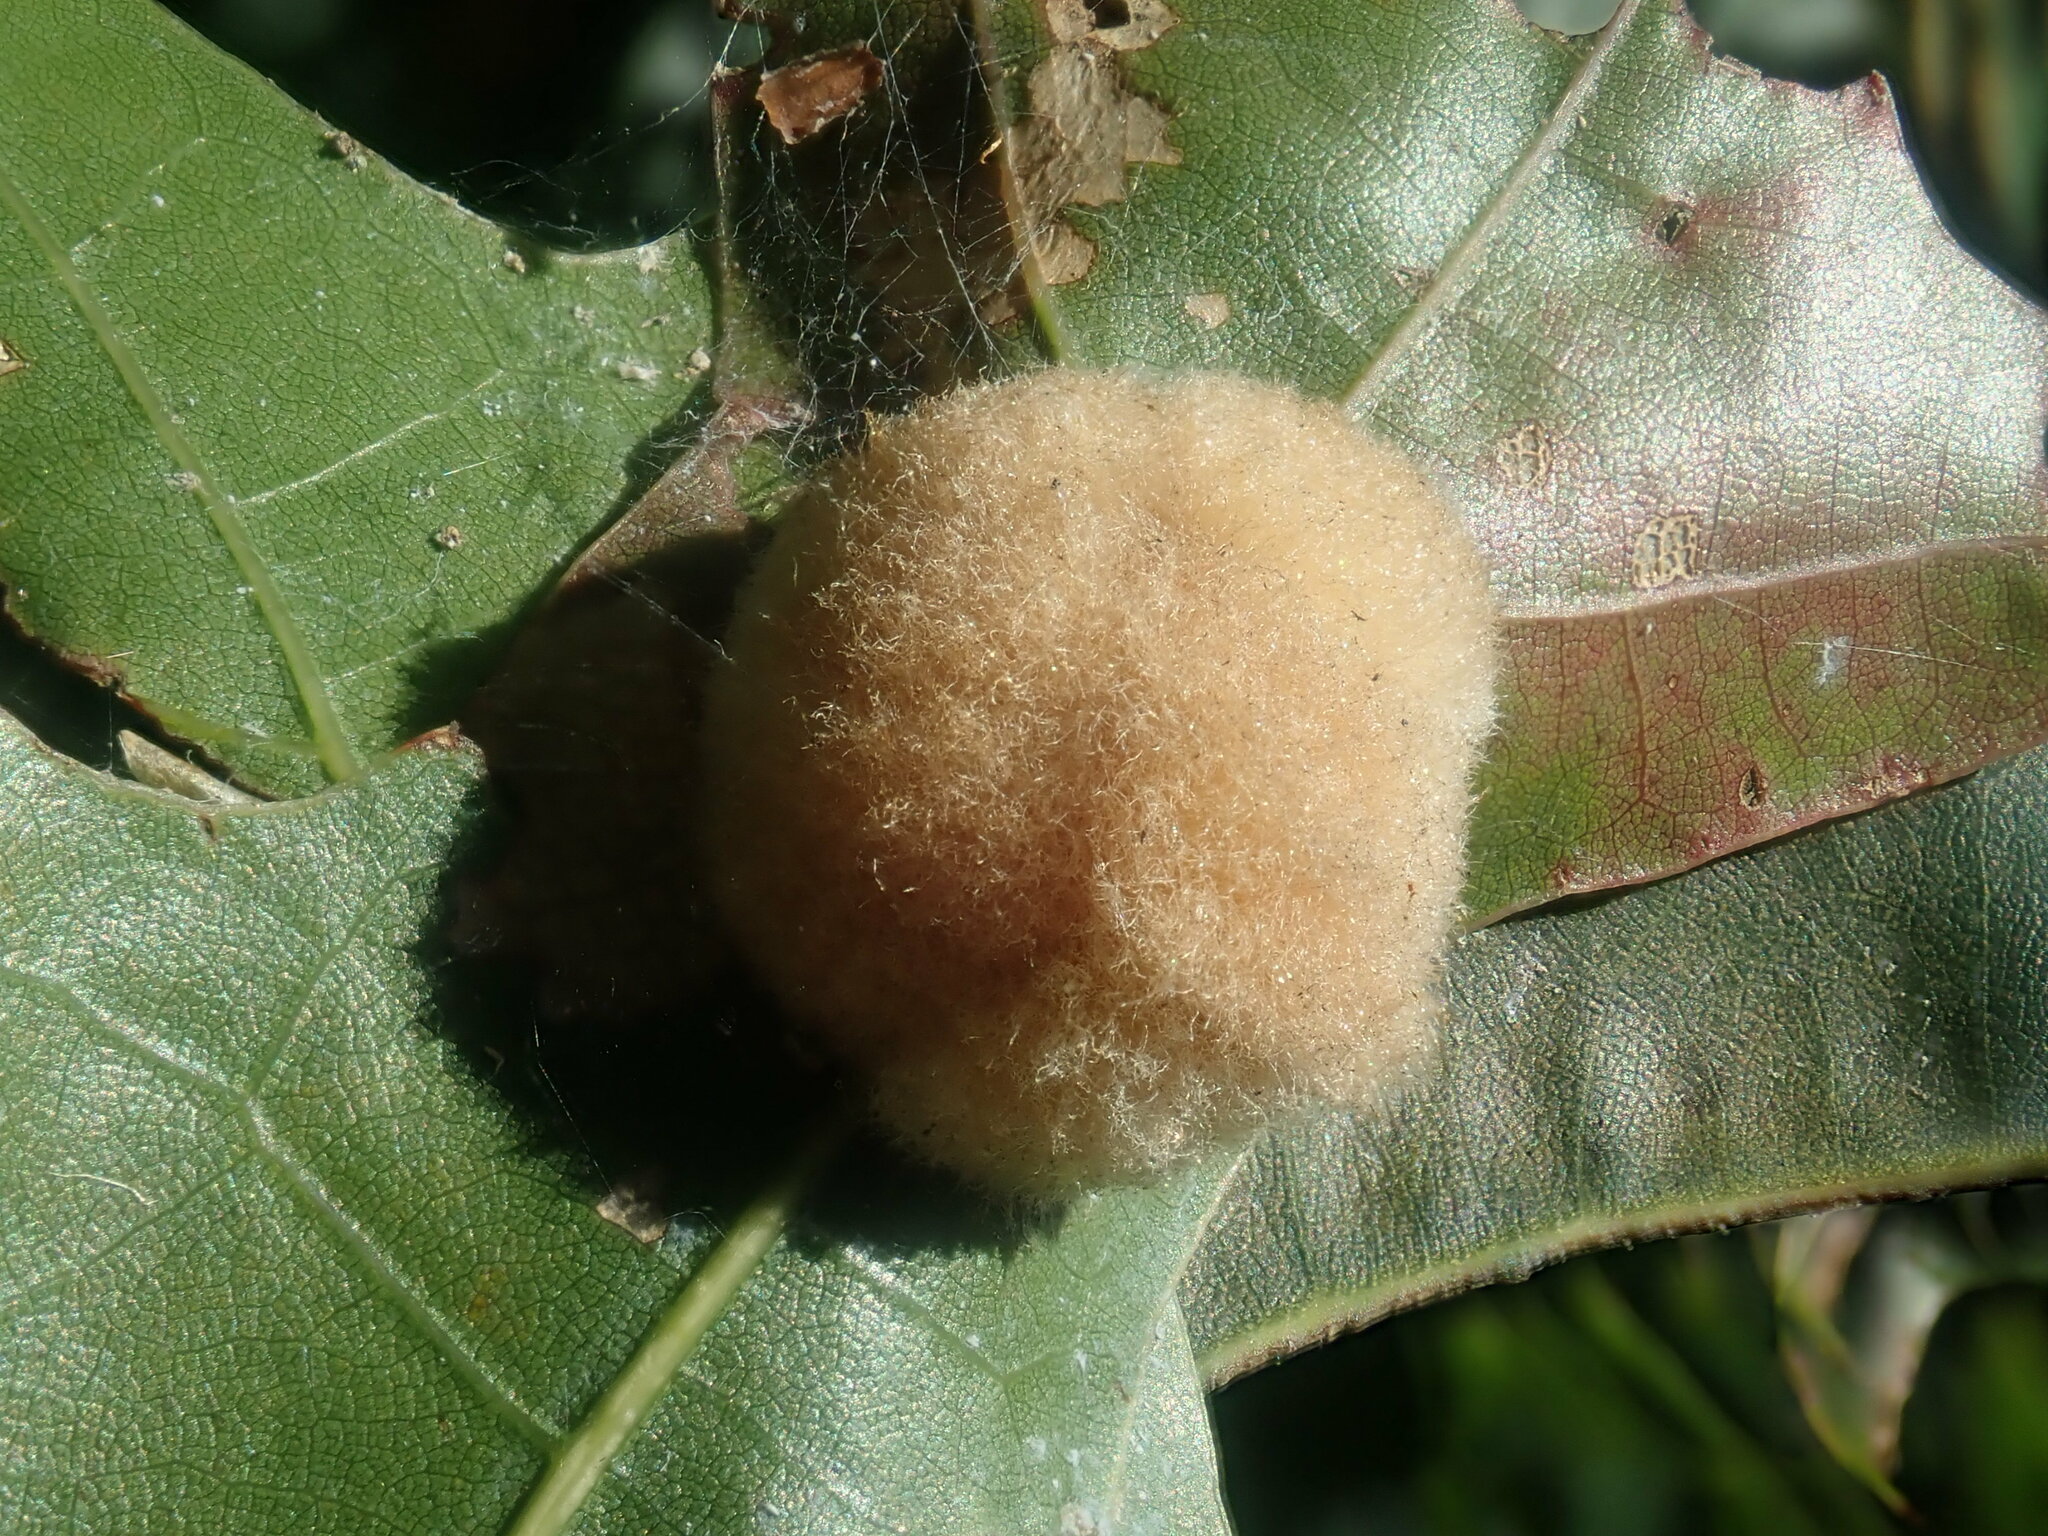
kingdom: Animalia
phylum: Arthropoda
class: Insecta
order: Hymenoptera
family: Cynipidae
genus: Callirhytis
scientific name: Callirhytis
